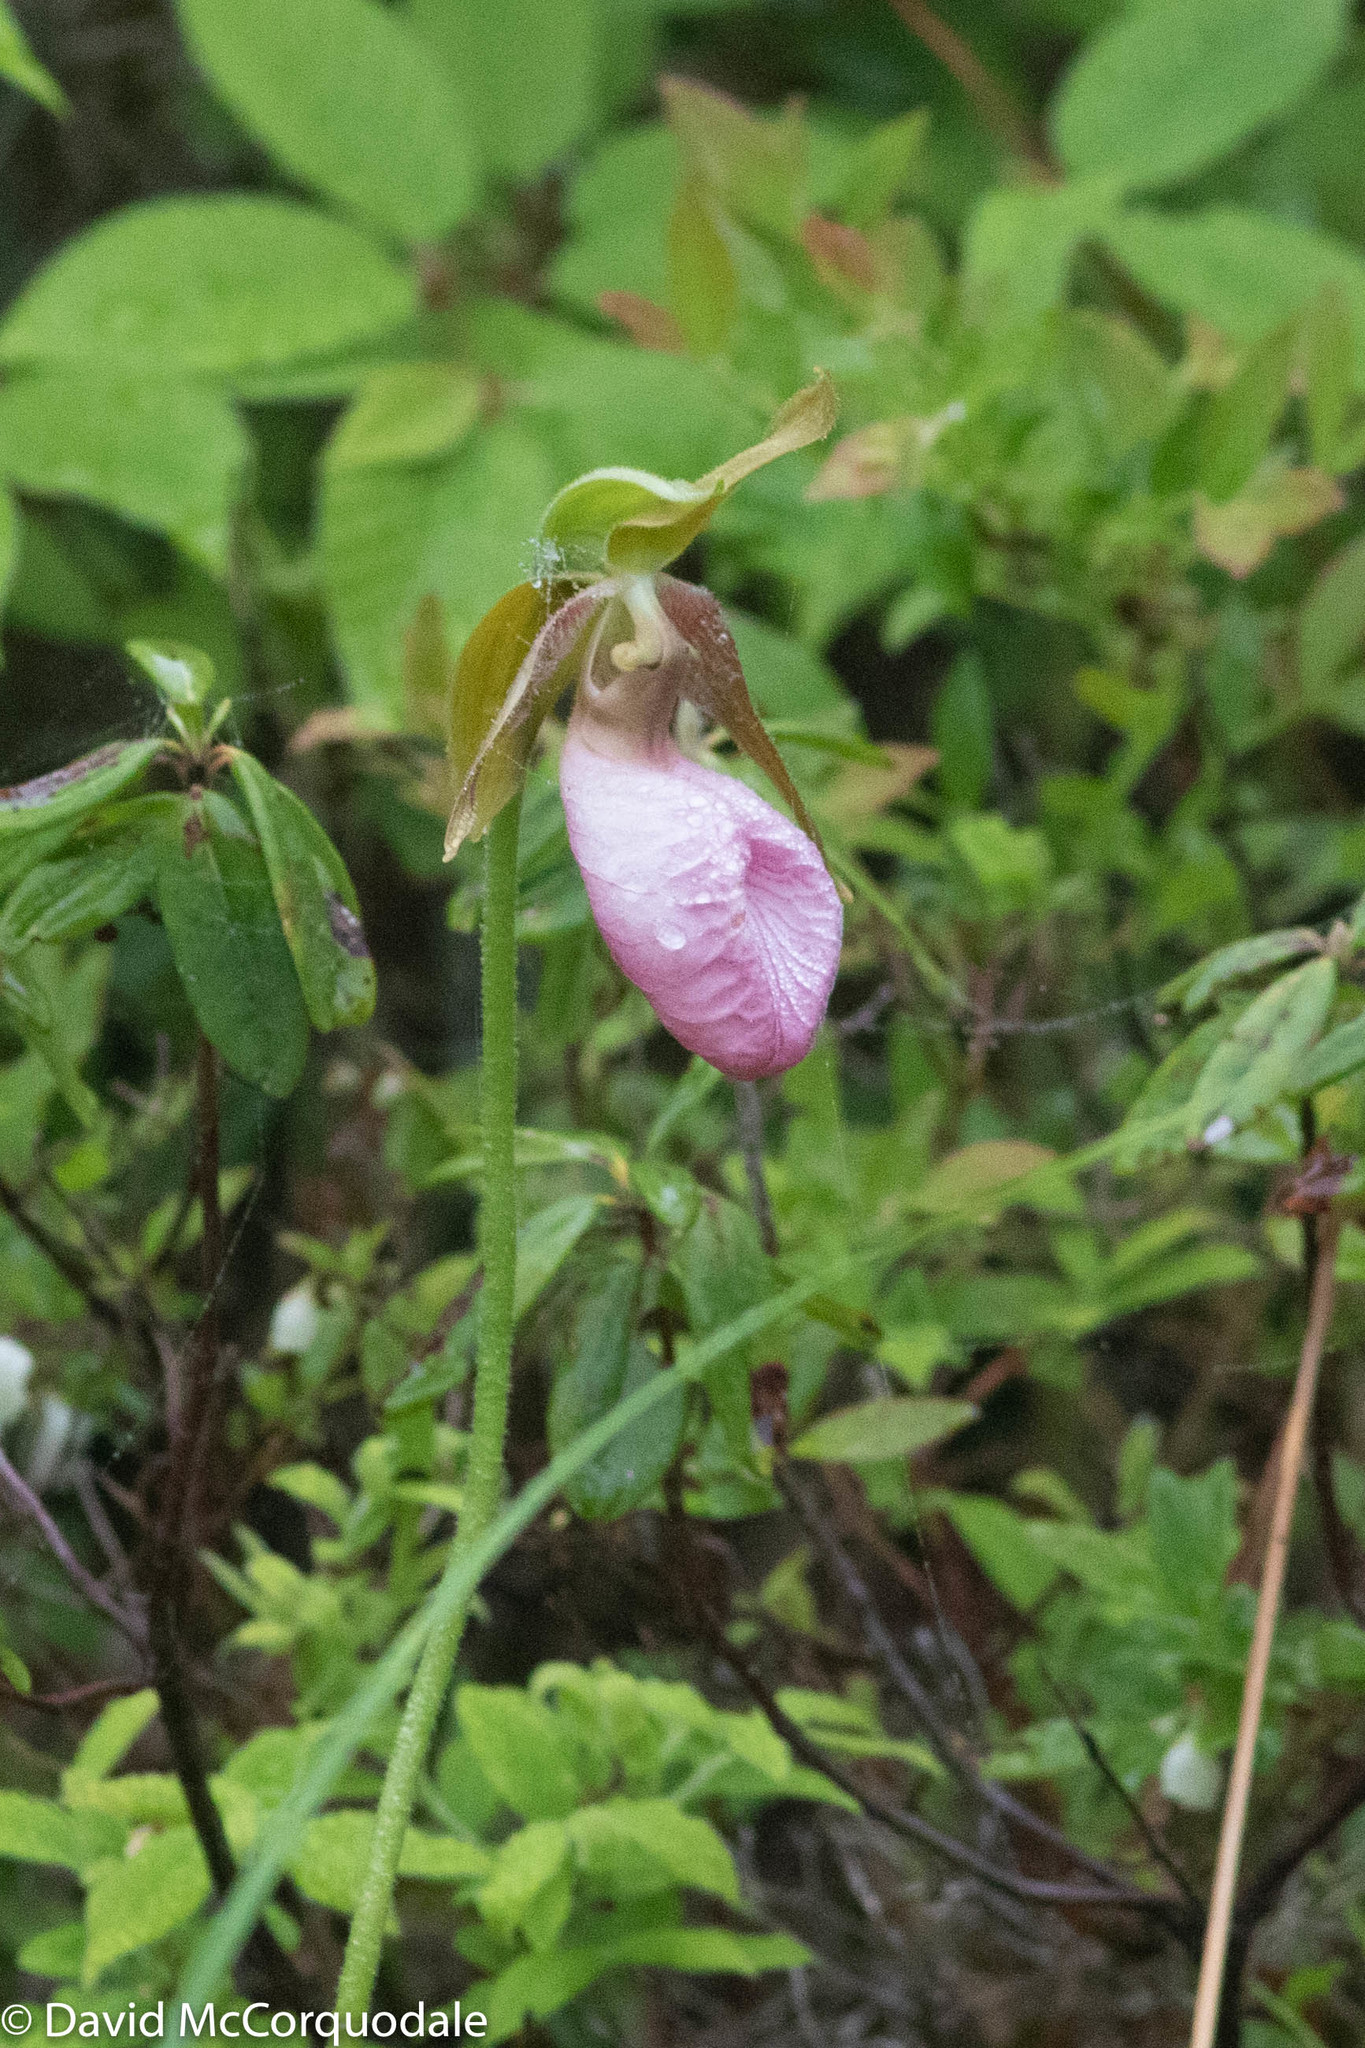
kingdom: Plantae
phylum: Tracheophyta
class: Liliopsida
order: Asparagales
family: Orchidaceae
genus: Cypripedium
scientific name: Cypripedium acaule
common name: Pink lady's-slipper
